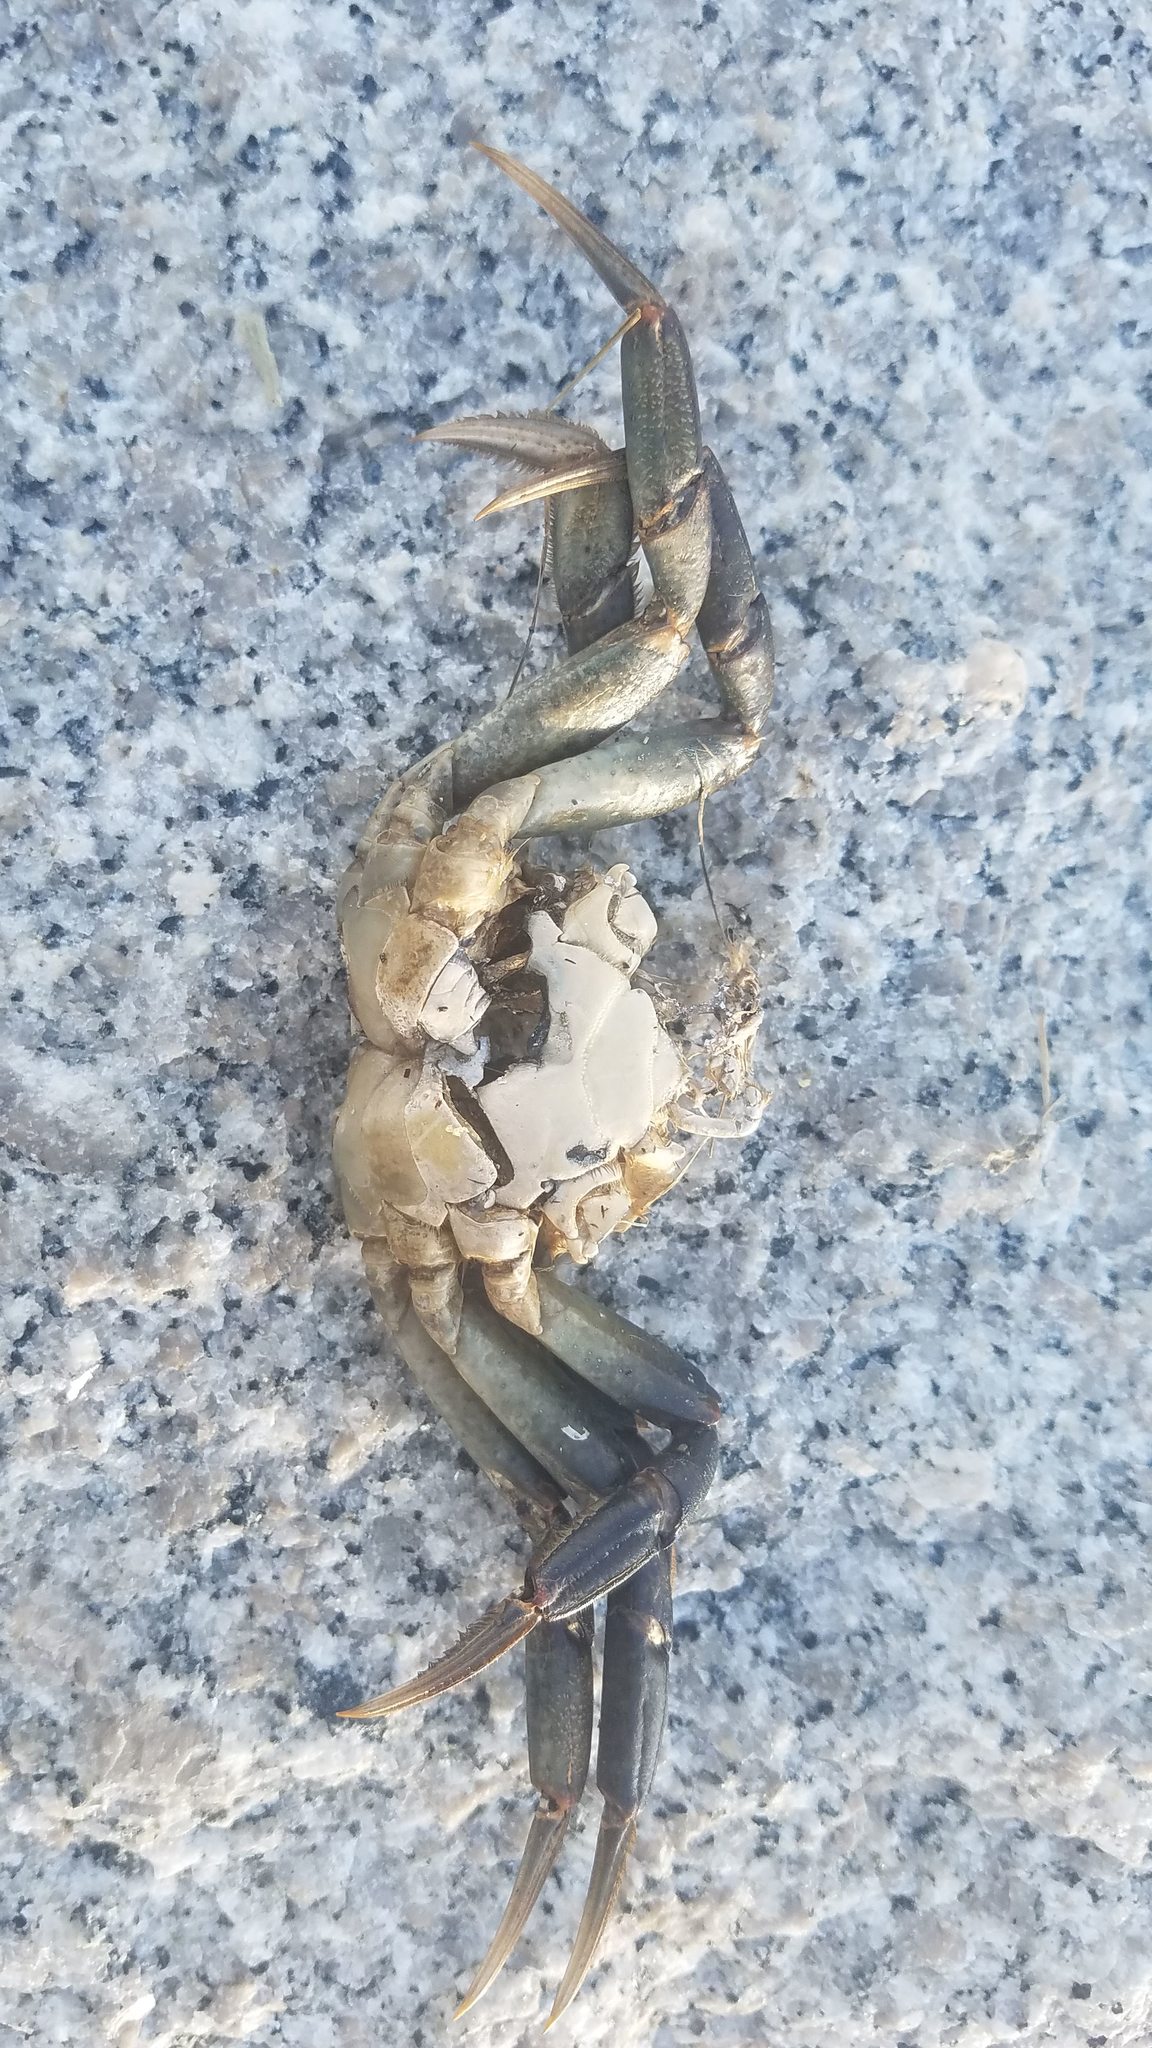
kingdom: Animalia
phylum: Arthropoda
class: Malacostraca
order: Decapoda
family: Carcinidae
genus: Carcinus
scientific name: Carcinus maenas
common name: European green crab
